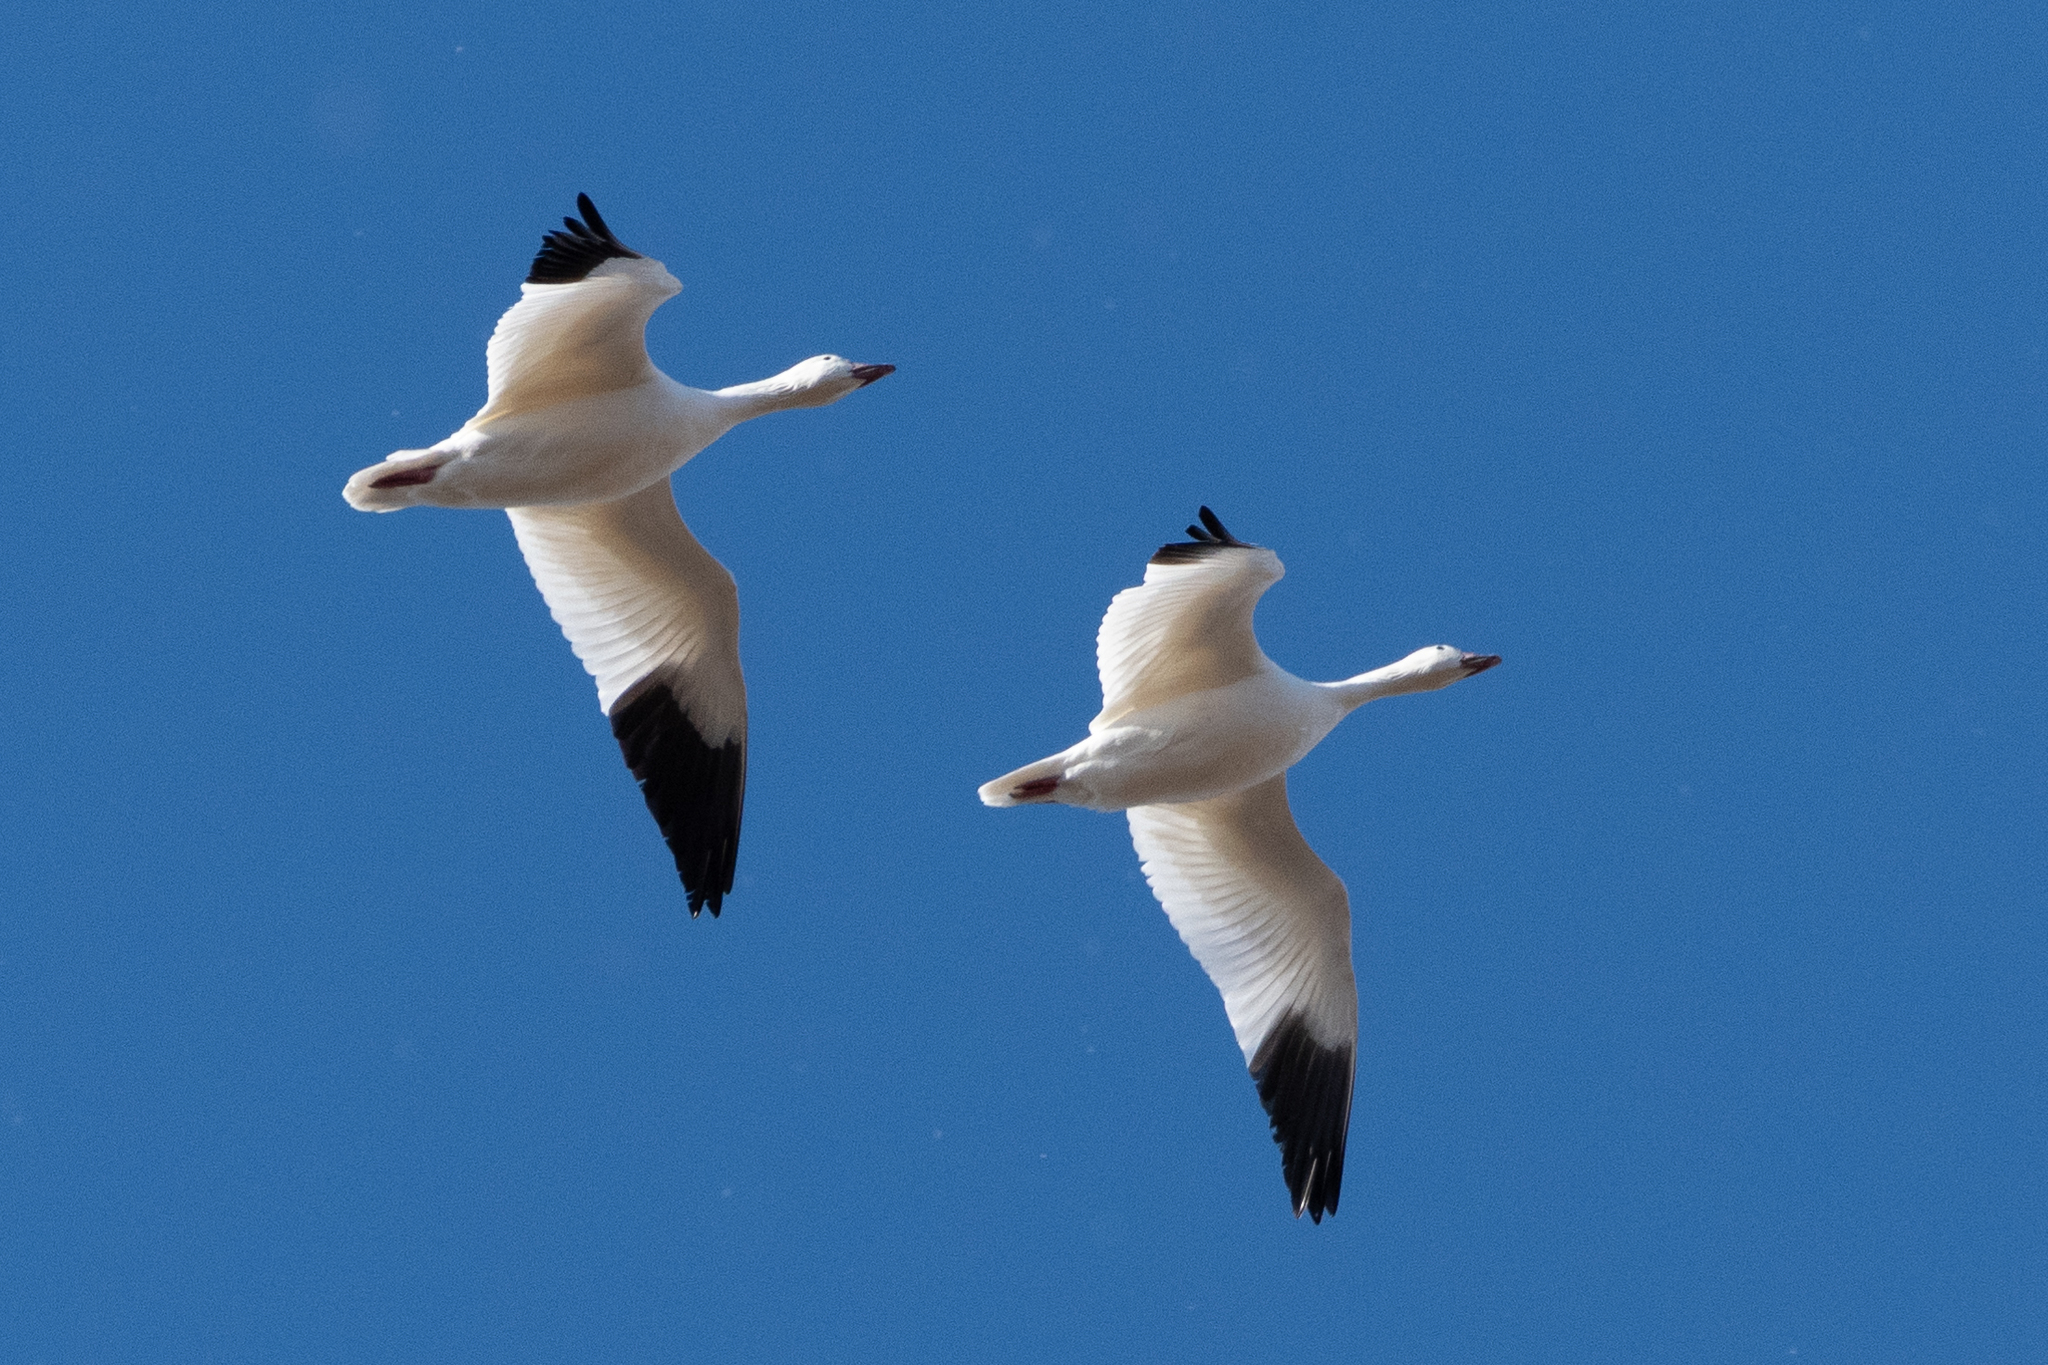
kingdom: Animalia
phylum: Chordata
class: Aves
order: Anseriformes
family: Anatidae
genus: Anser
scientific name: Anser caerulescens
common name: Snow goose
